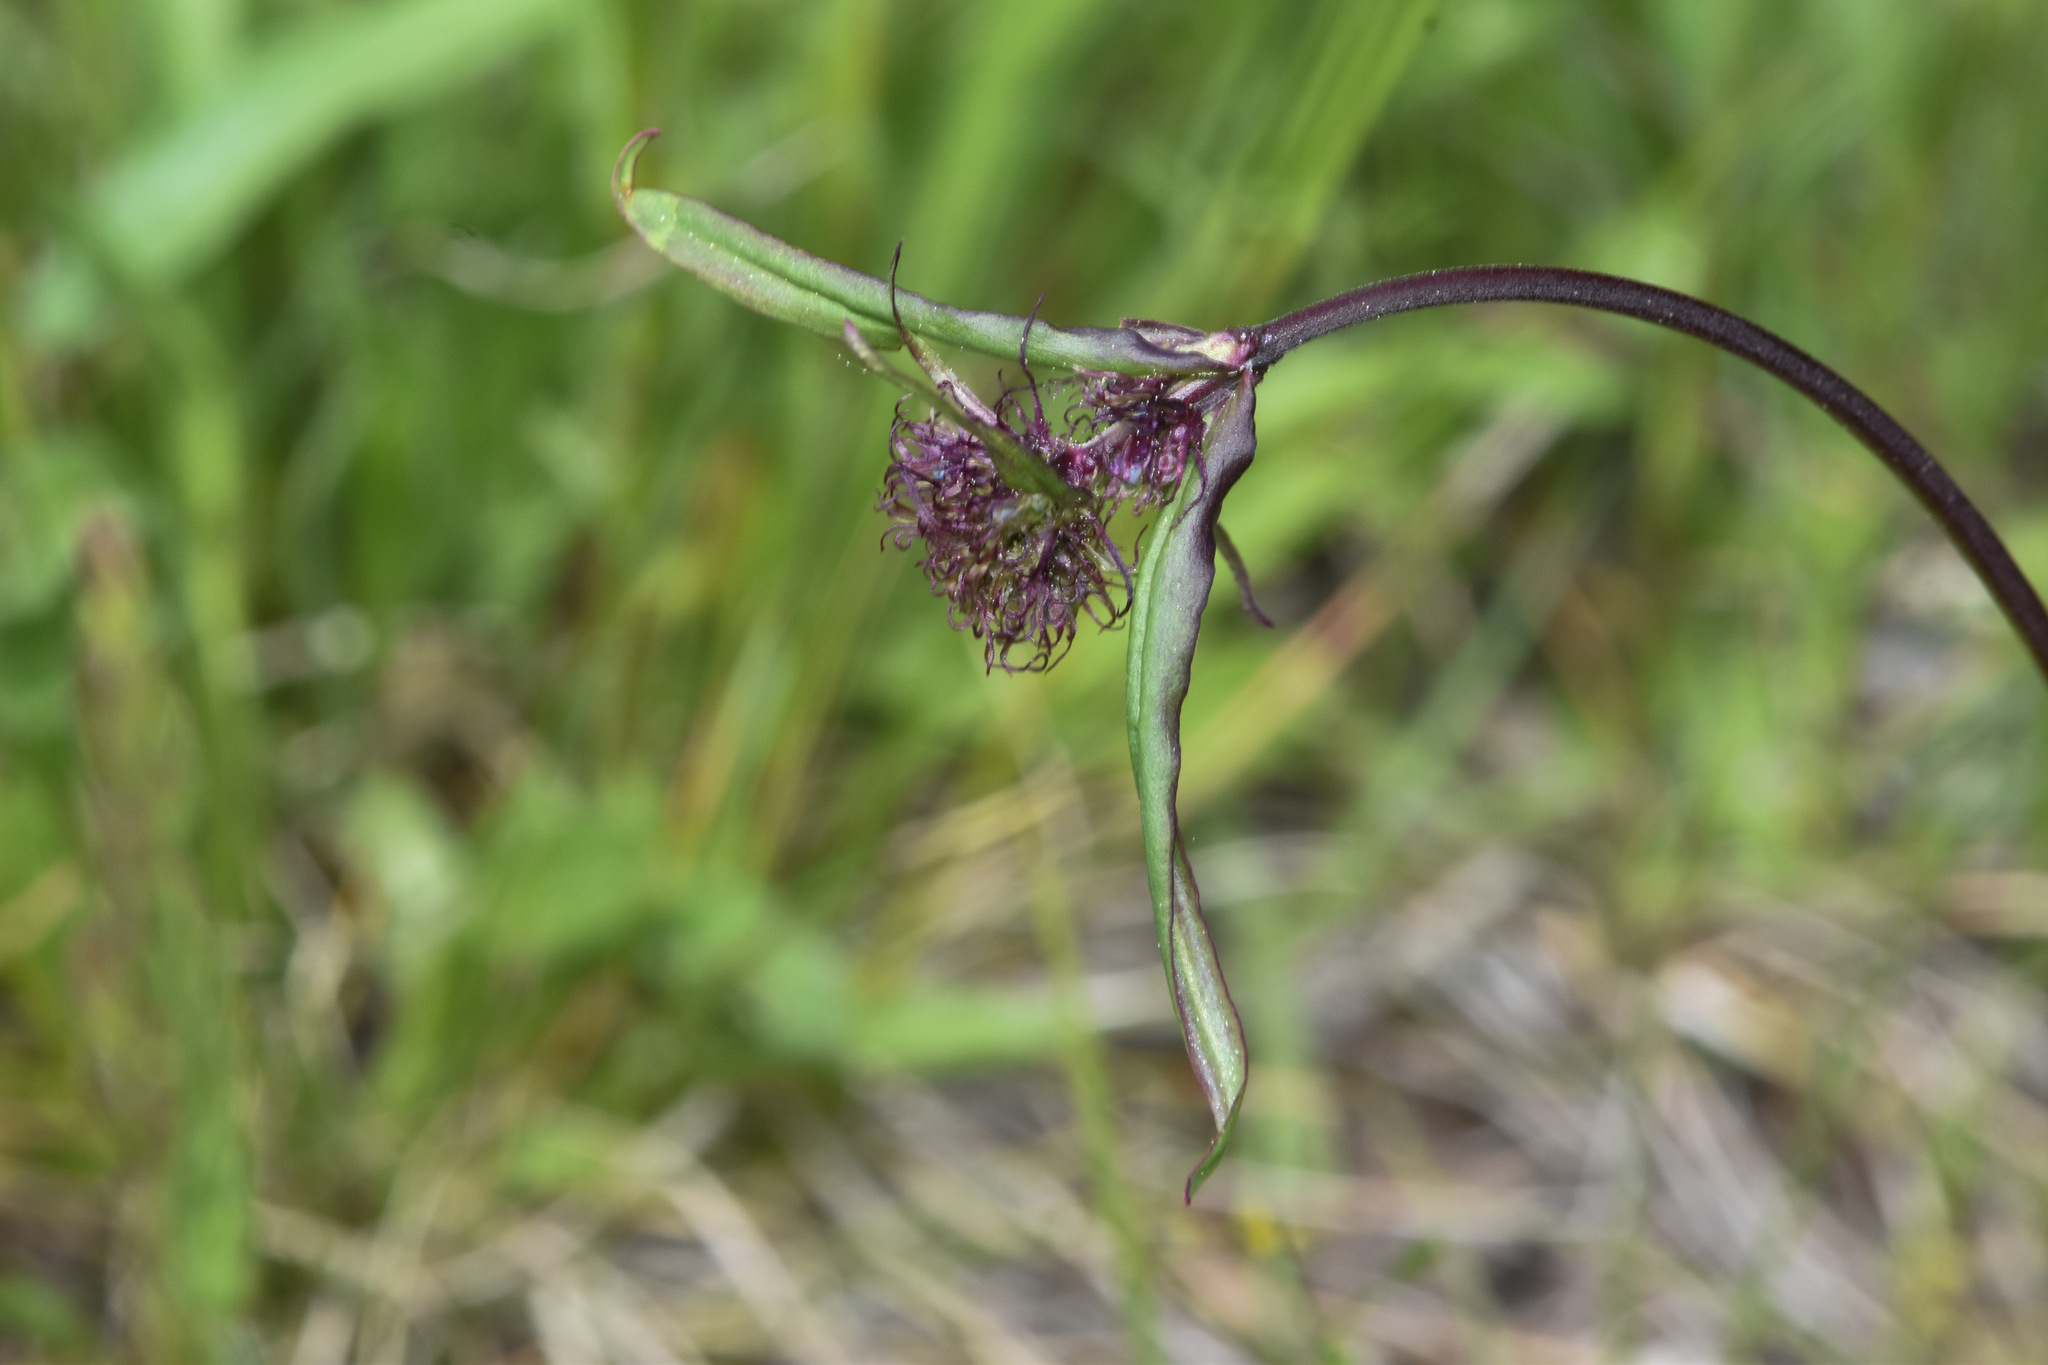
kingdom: Plantae
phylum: Tracheophyta
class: Magnoliopsida
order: Lamiales
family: Plantaginaceae
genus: Penstemon
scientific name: Penstemon procerus
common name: Small-flower penstemon
